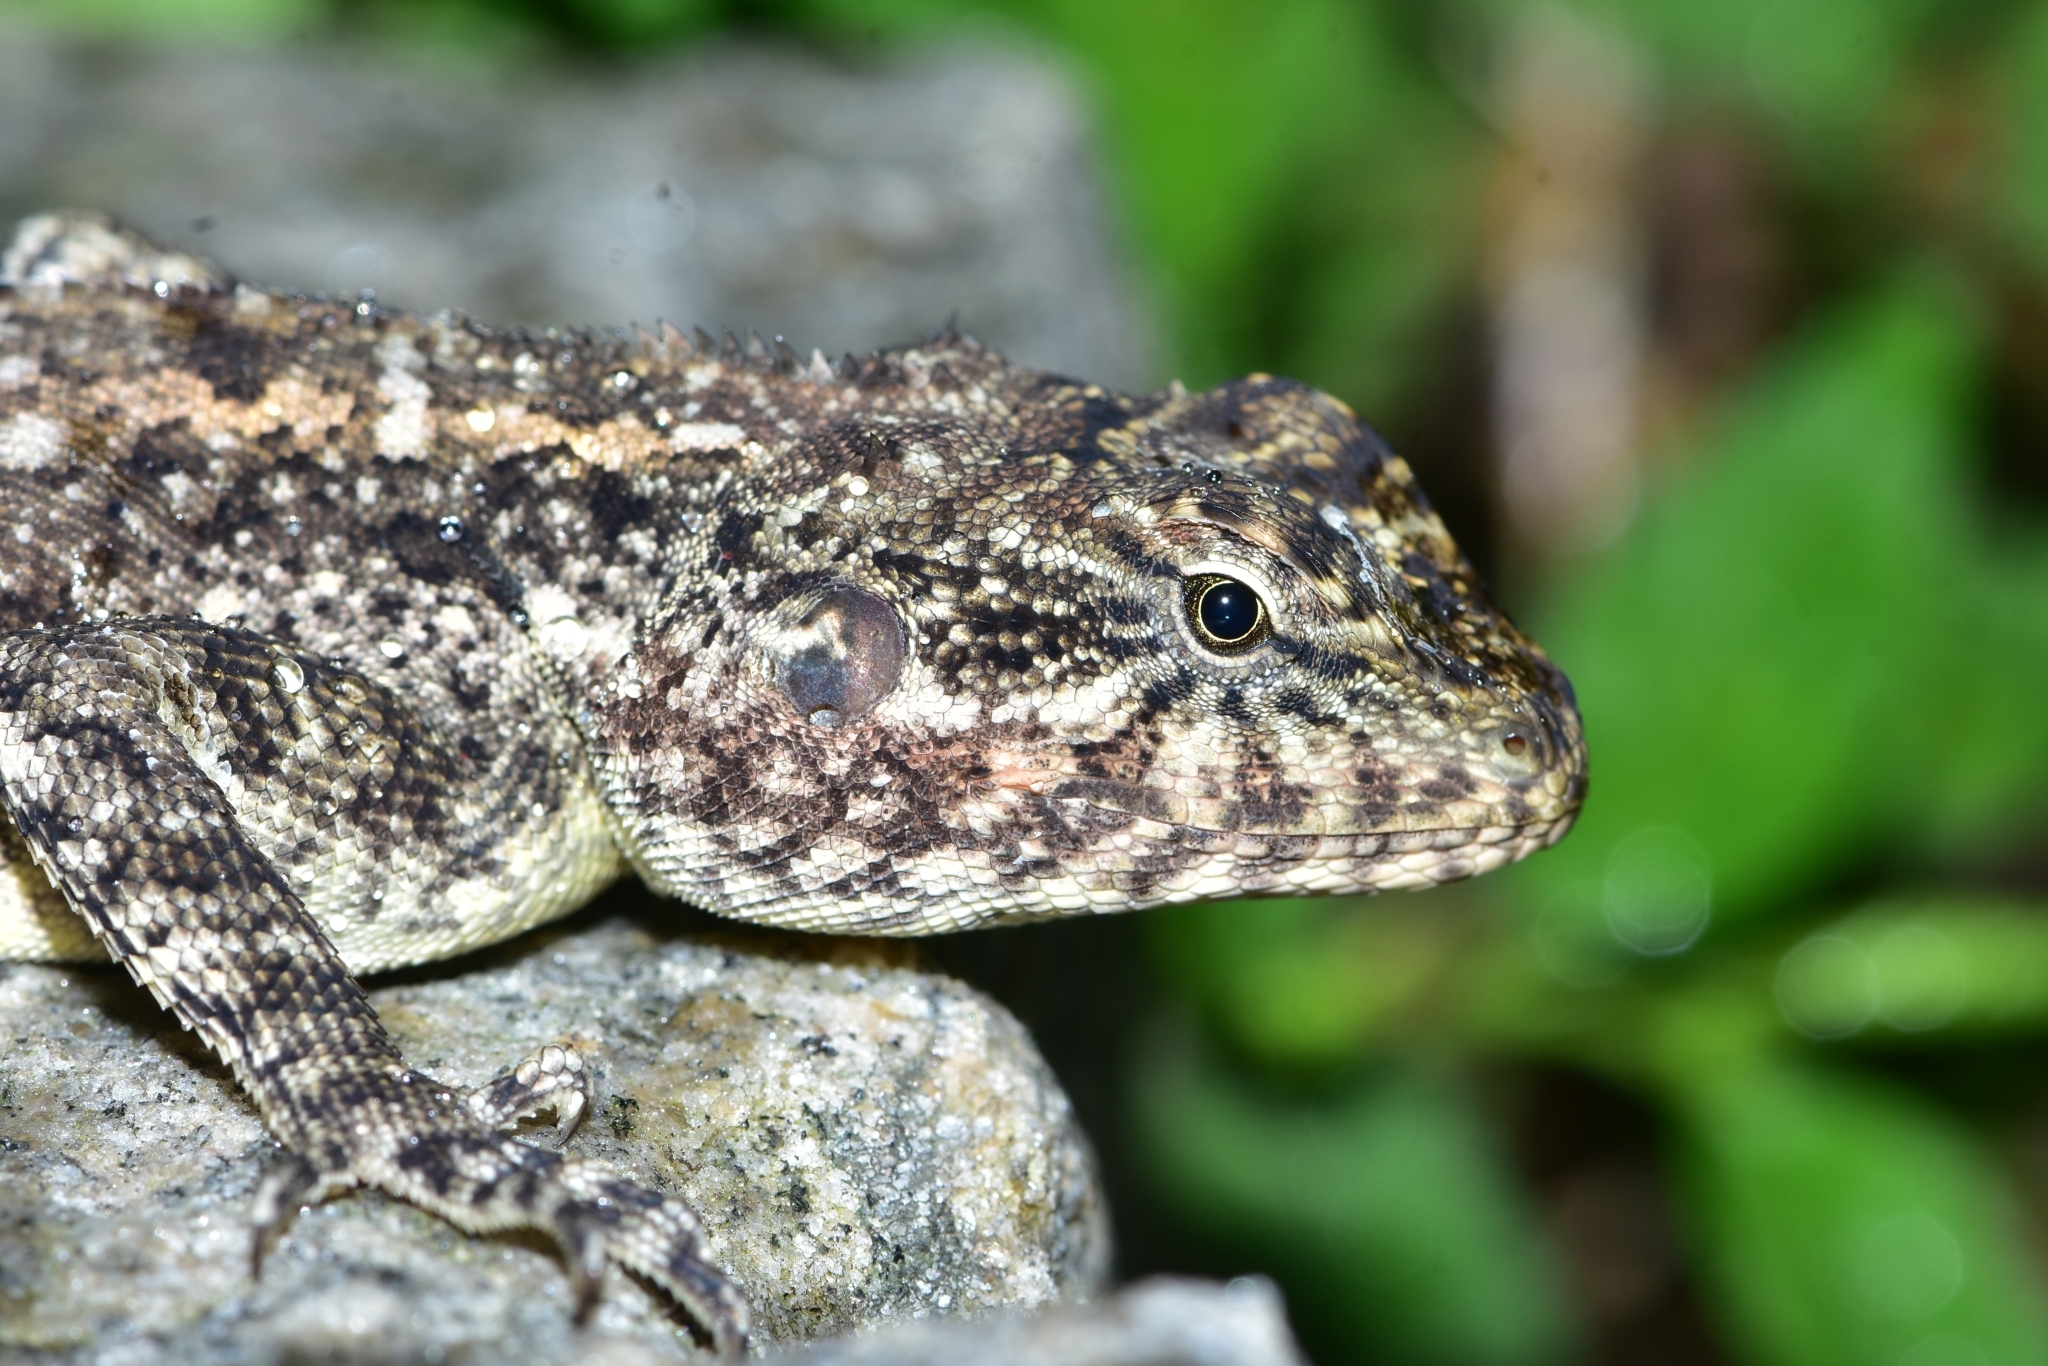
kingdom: Animalia
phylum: Chordata
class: Squamata
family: Agamidae
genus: Psammophilus
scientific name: Psammophilus dorsalis
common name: South indian rock agama
